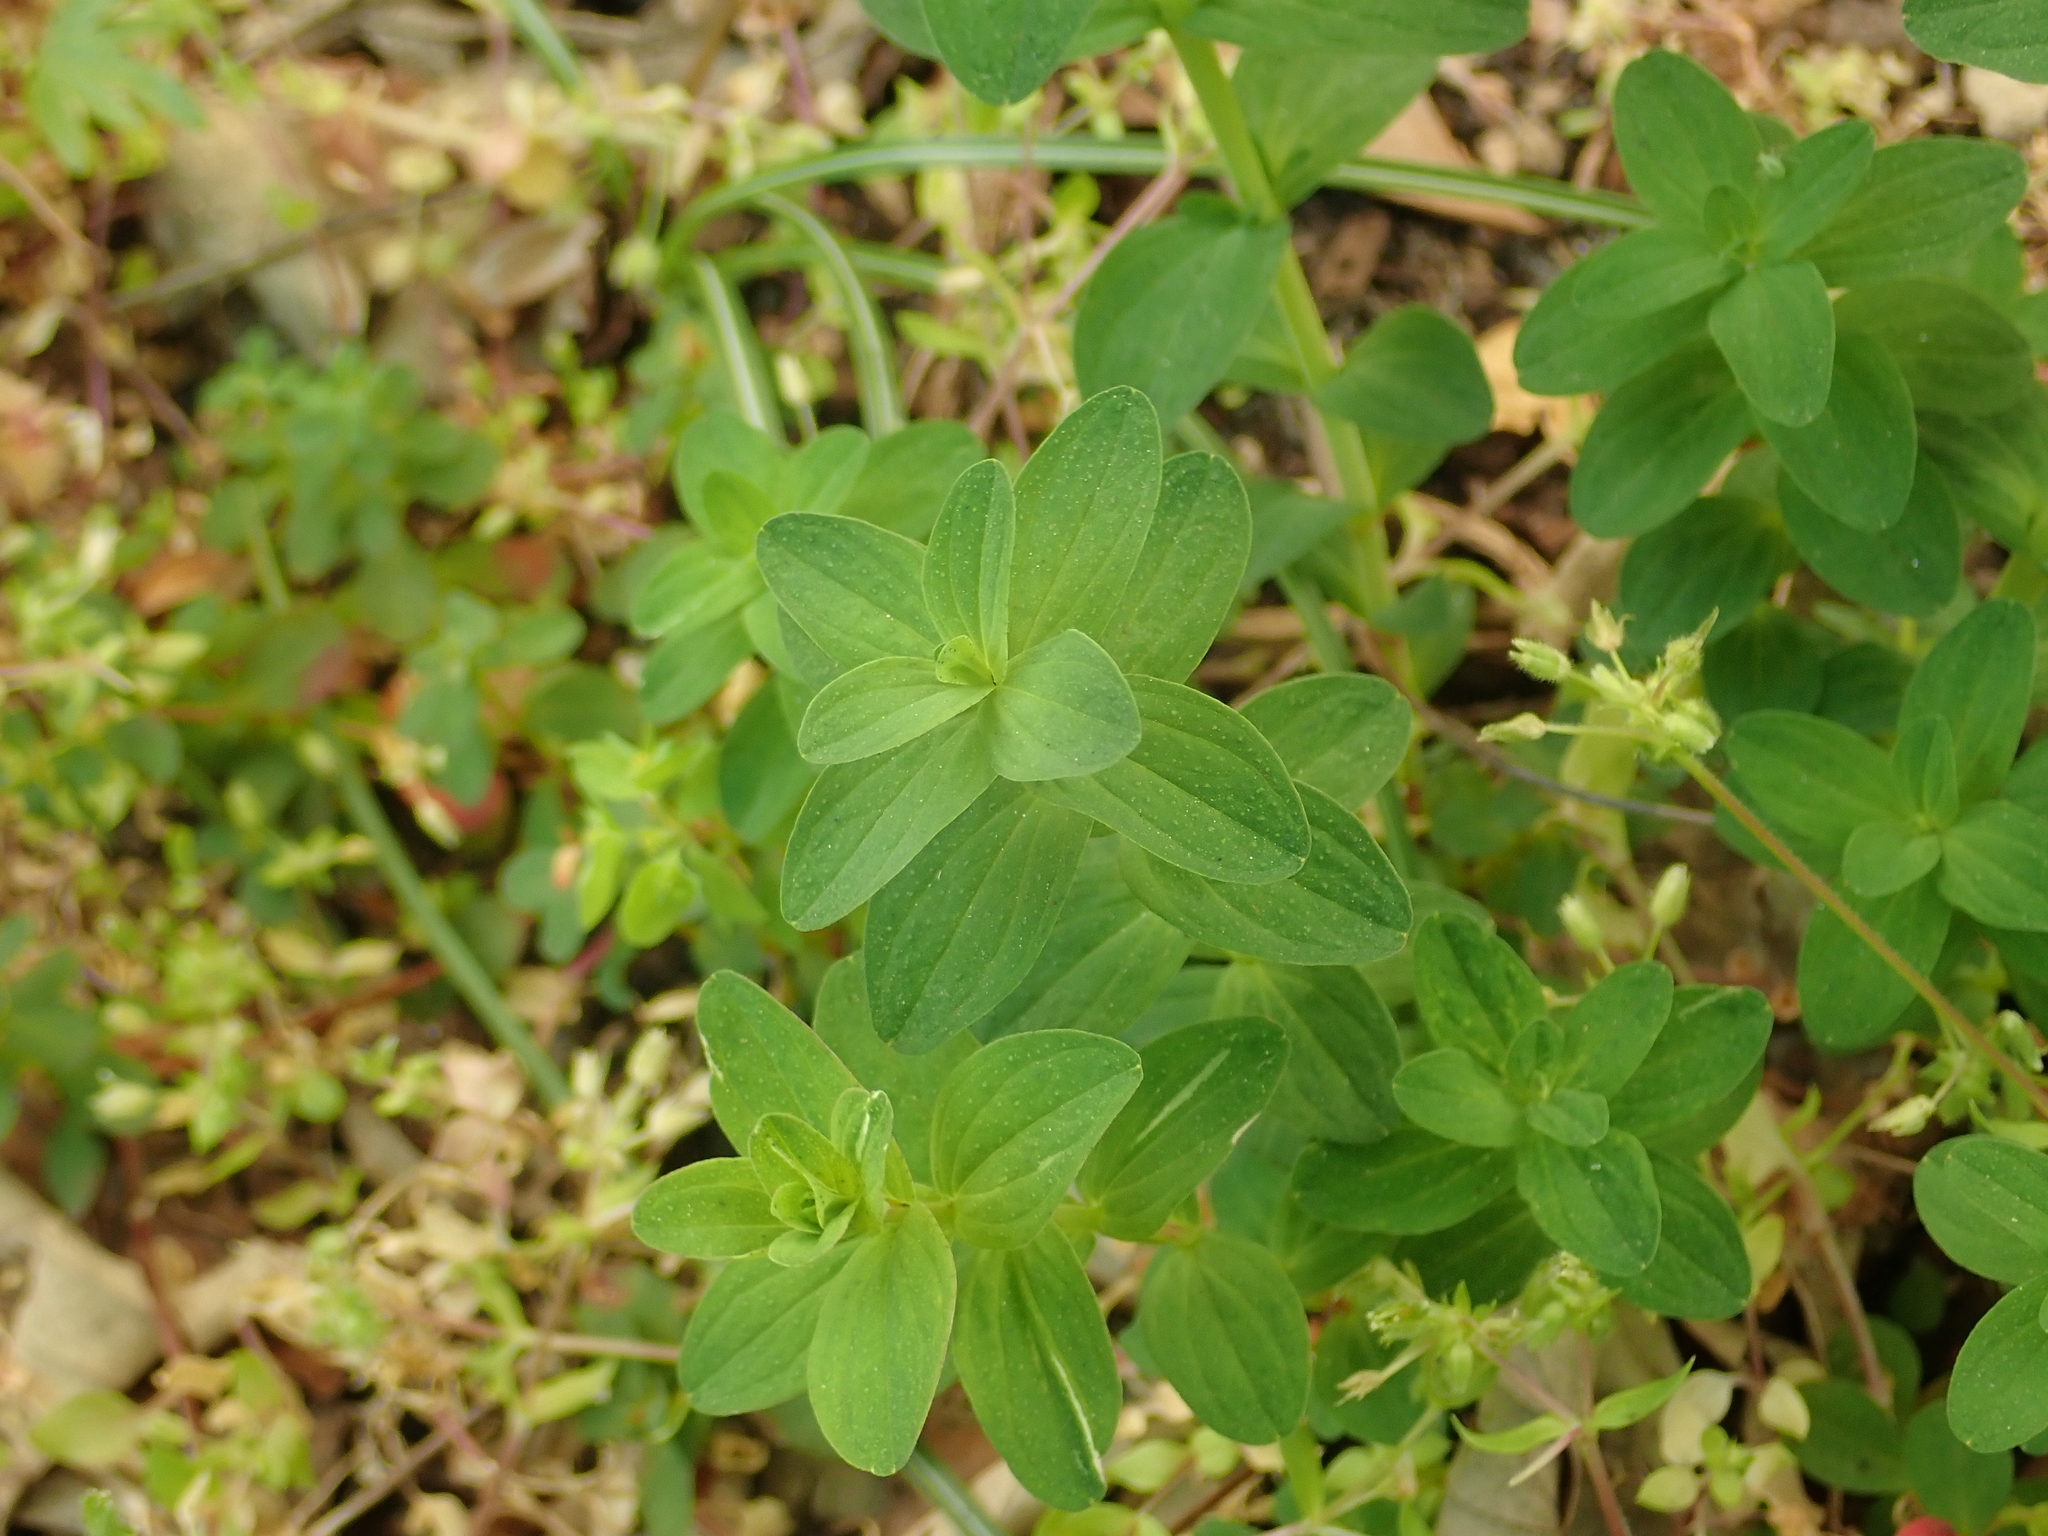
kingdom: Plantae
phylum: Tracheophyta
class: Magnoliopsida
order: Malpighiales
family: Hypericaceae
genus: Hypericum
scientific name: Hypericum perforatum
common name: Common st. johnswort
